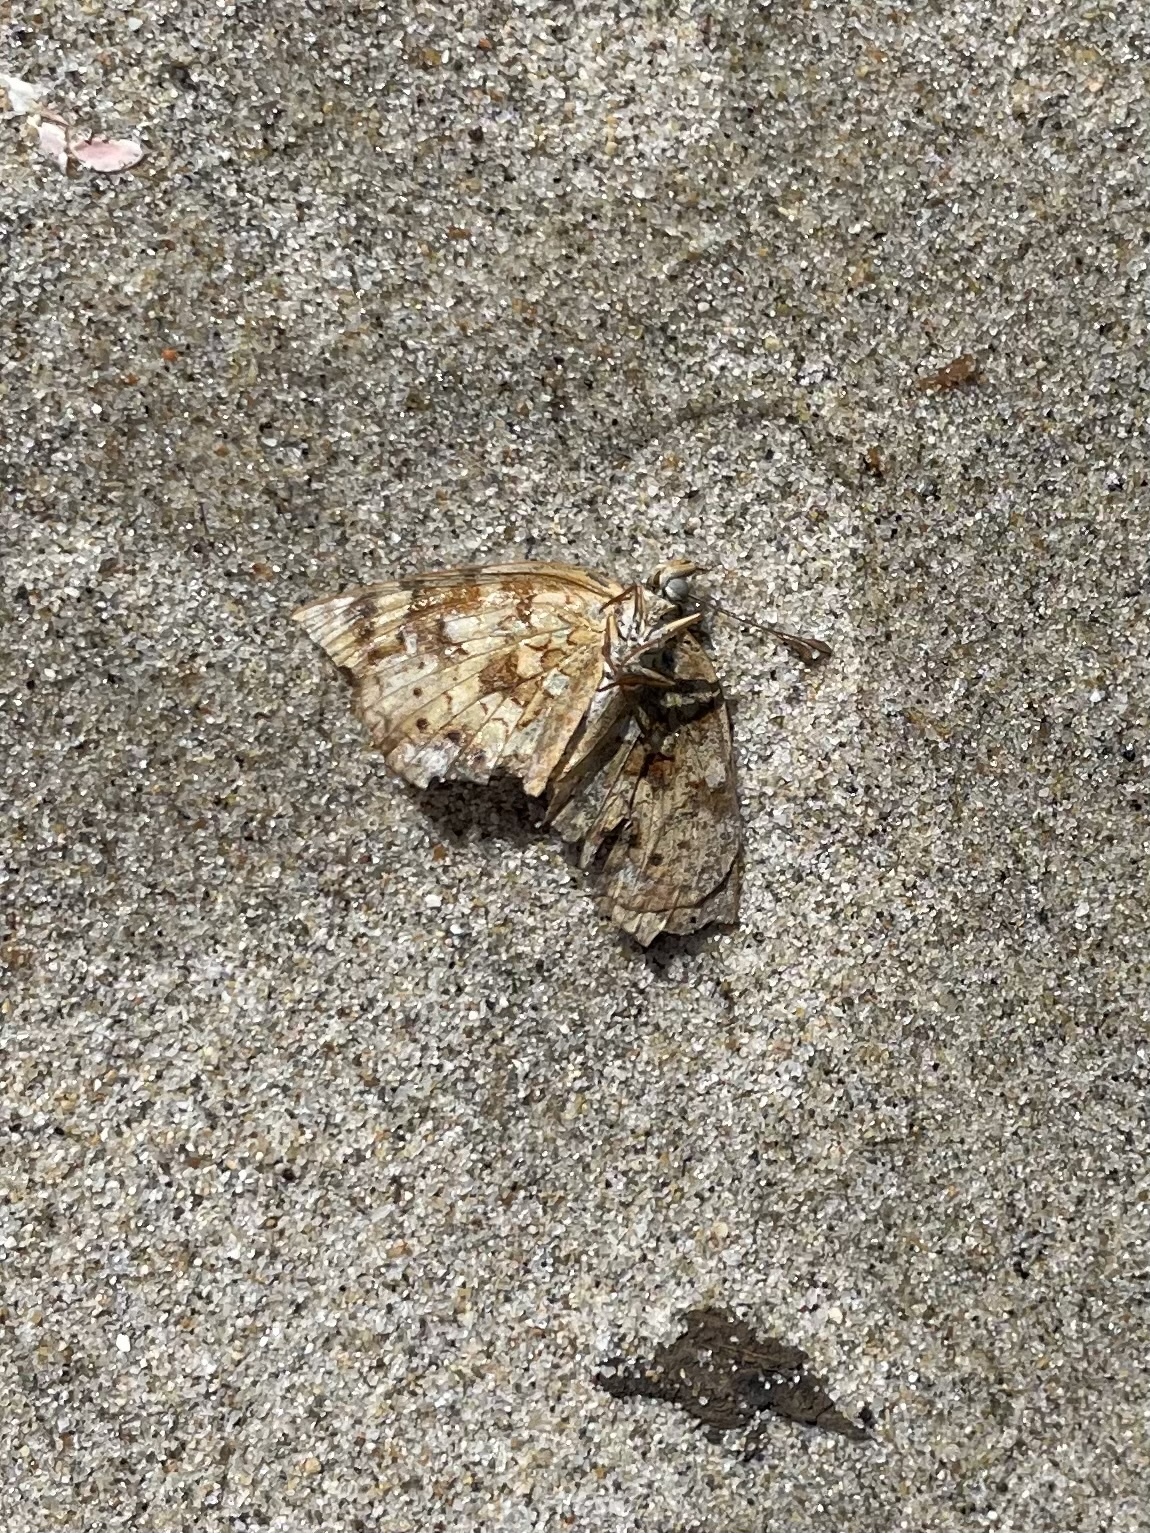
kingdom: Animalia
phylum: Arthropoda
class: Insecta
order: Lepidoptera
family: Nymphalidae
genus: Phyciodes
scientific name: Phyciodes tharos
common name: Pearl crescent
